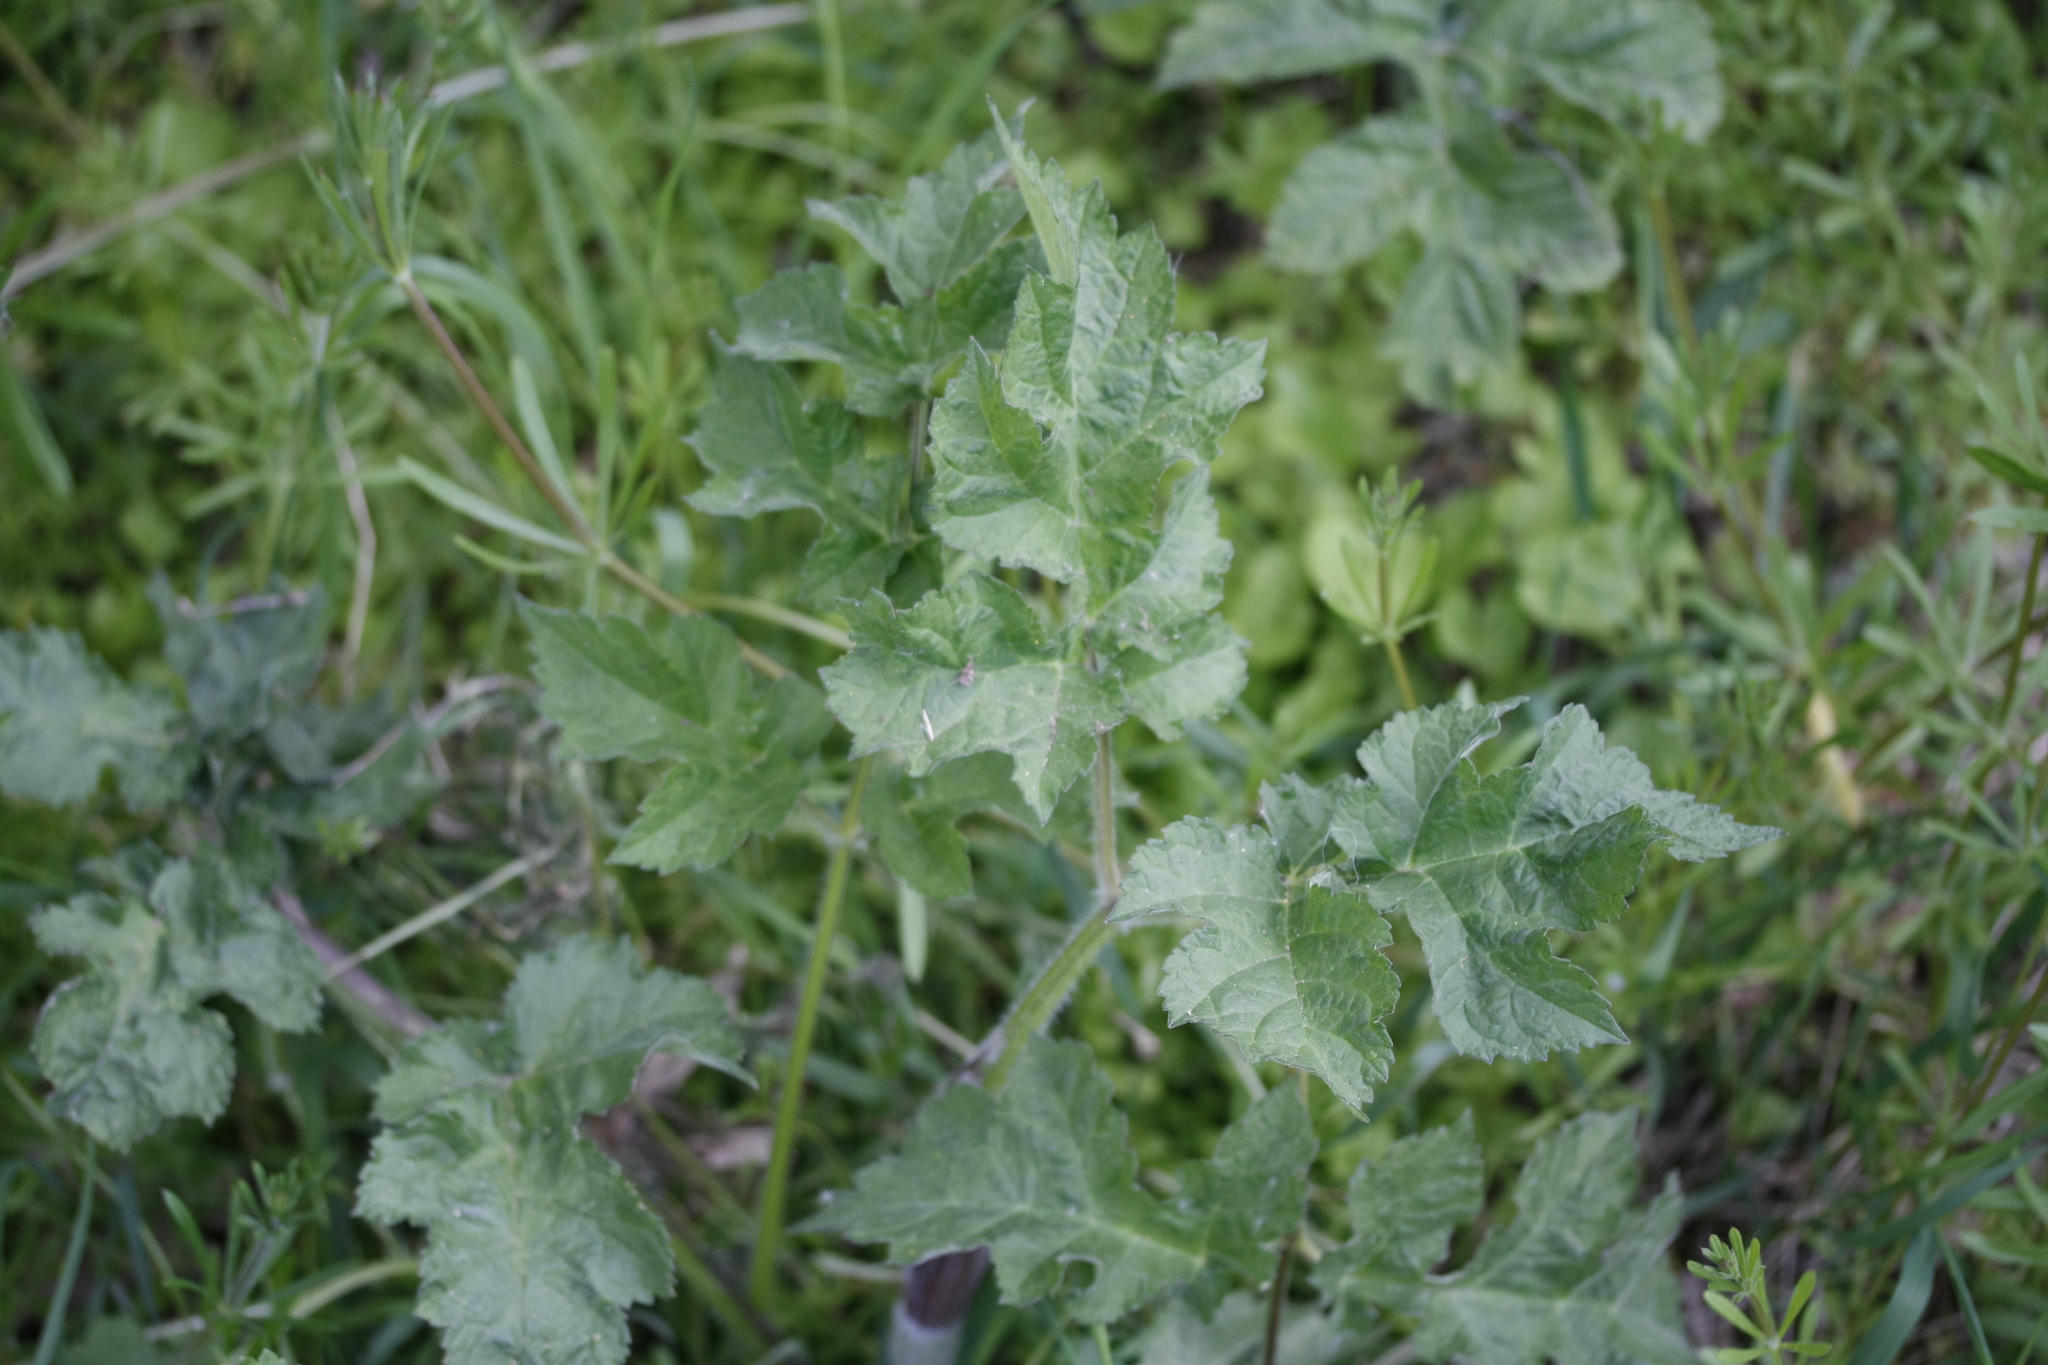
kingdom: Plantae
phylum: Tracheophyta
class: Magnoliopsida
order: Apiales
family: Apiaceae
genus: Heracleum
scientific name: Heracleum sphondylium
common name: Hogweed
